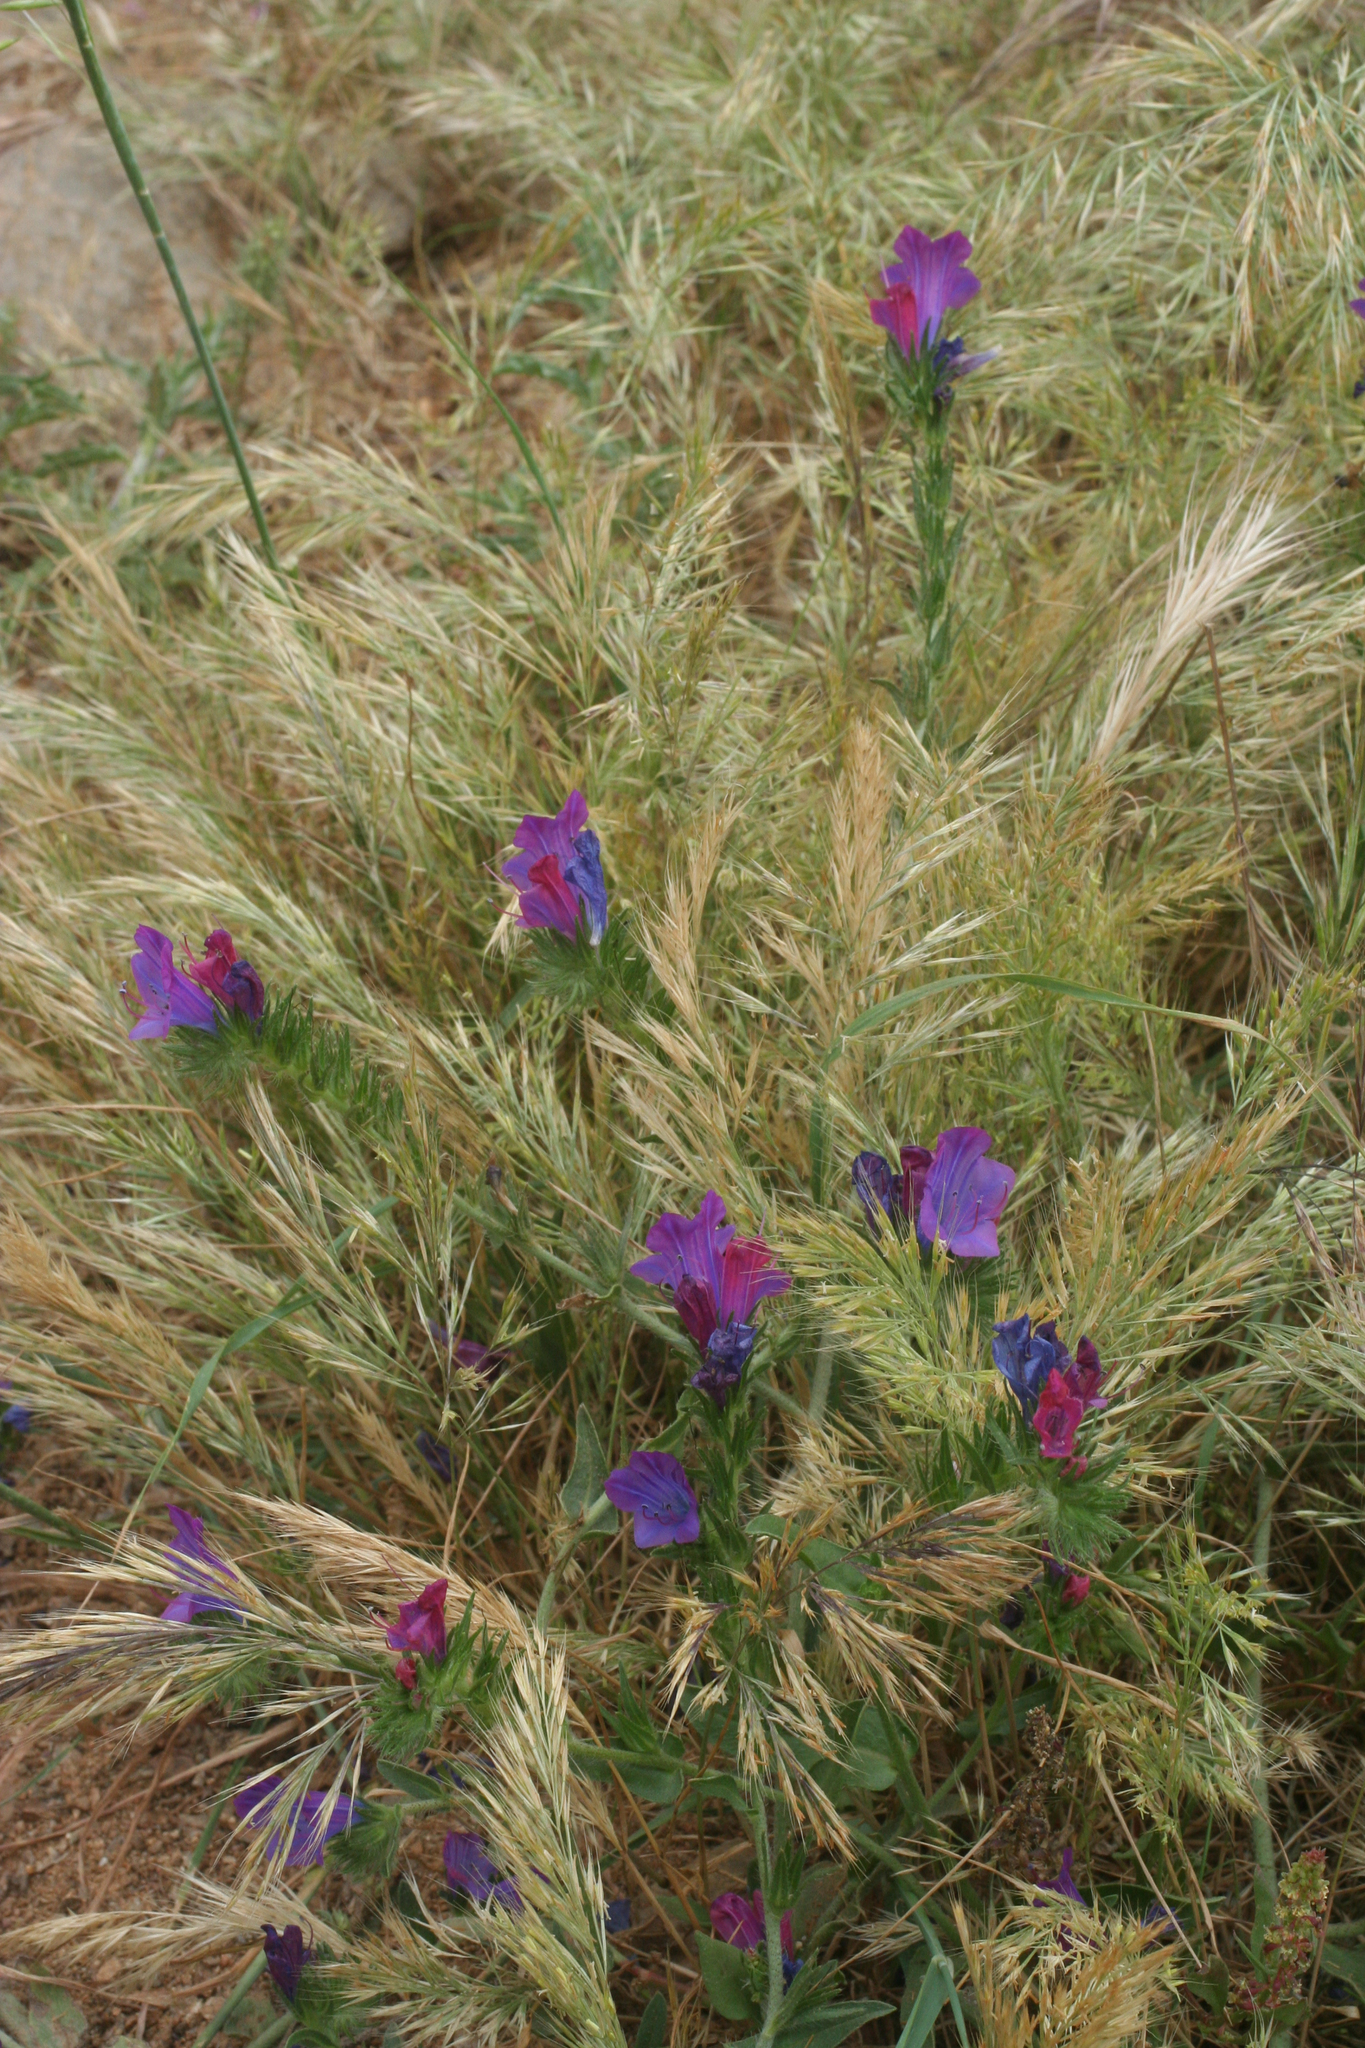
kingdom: Plantae
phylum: Tracheophyta
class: Magnoliopsida
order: Boraginales
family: Boraginaceae
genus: Echium
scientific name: Echium plantagineum
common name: Purple viper's-bugloss
